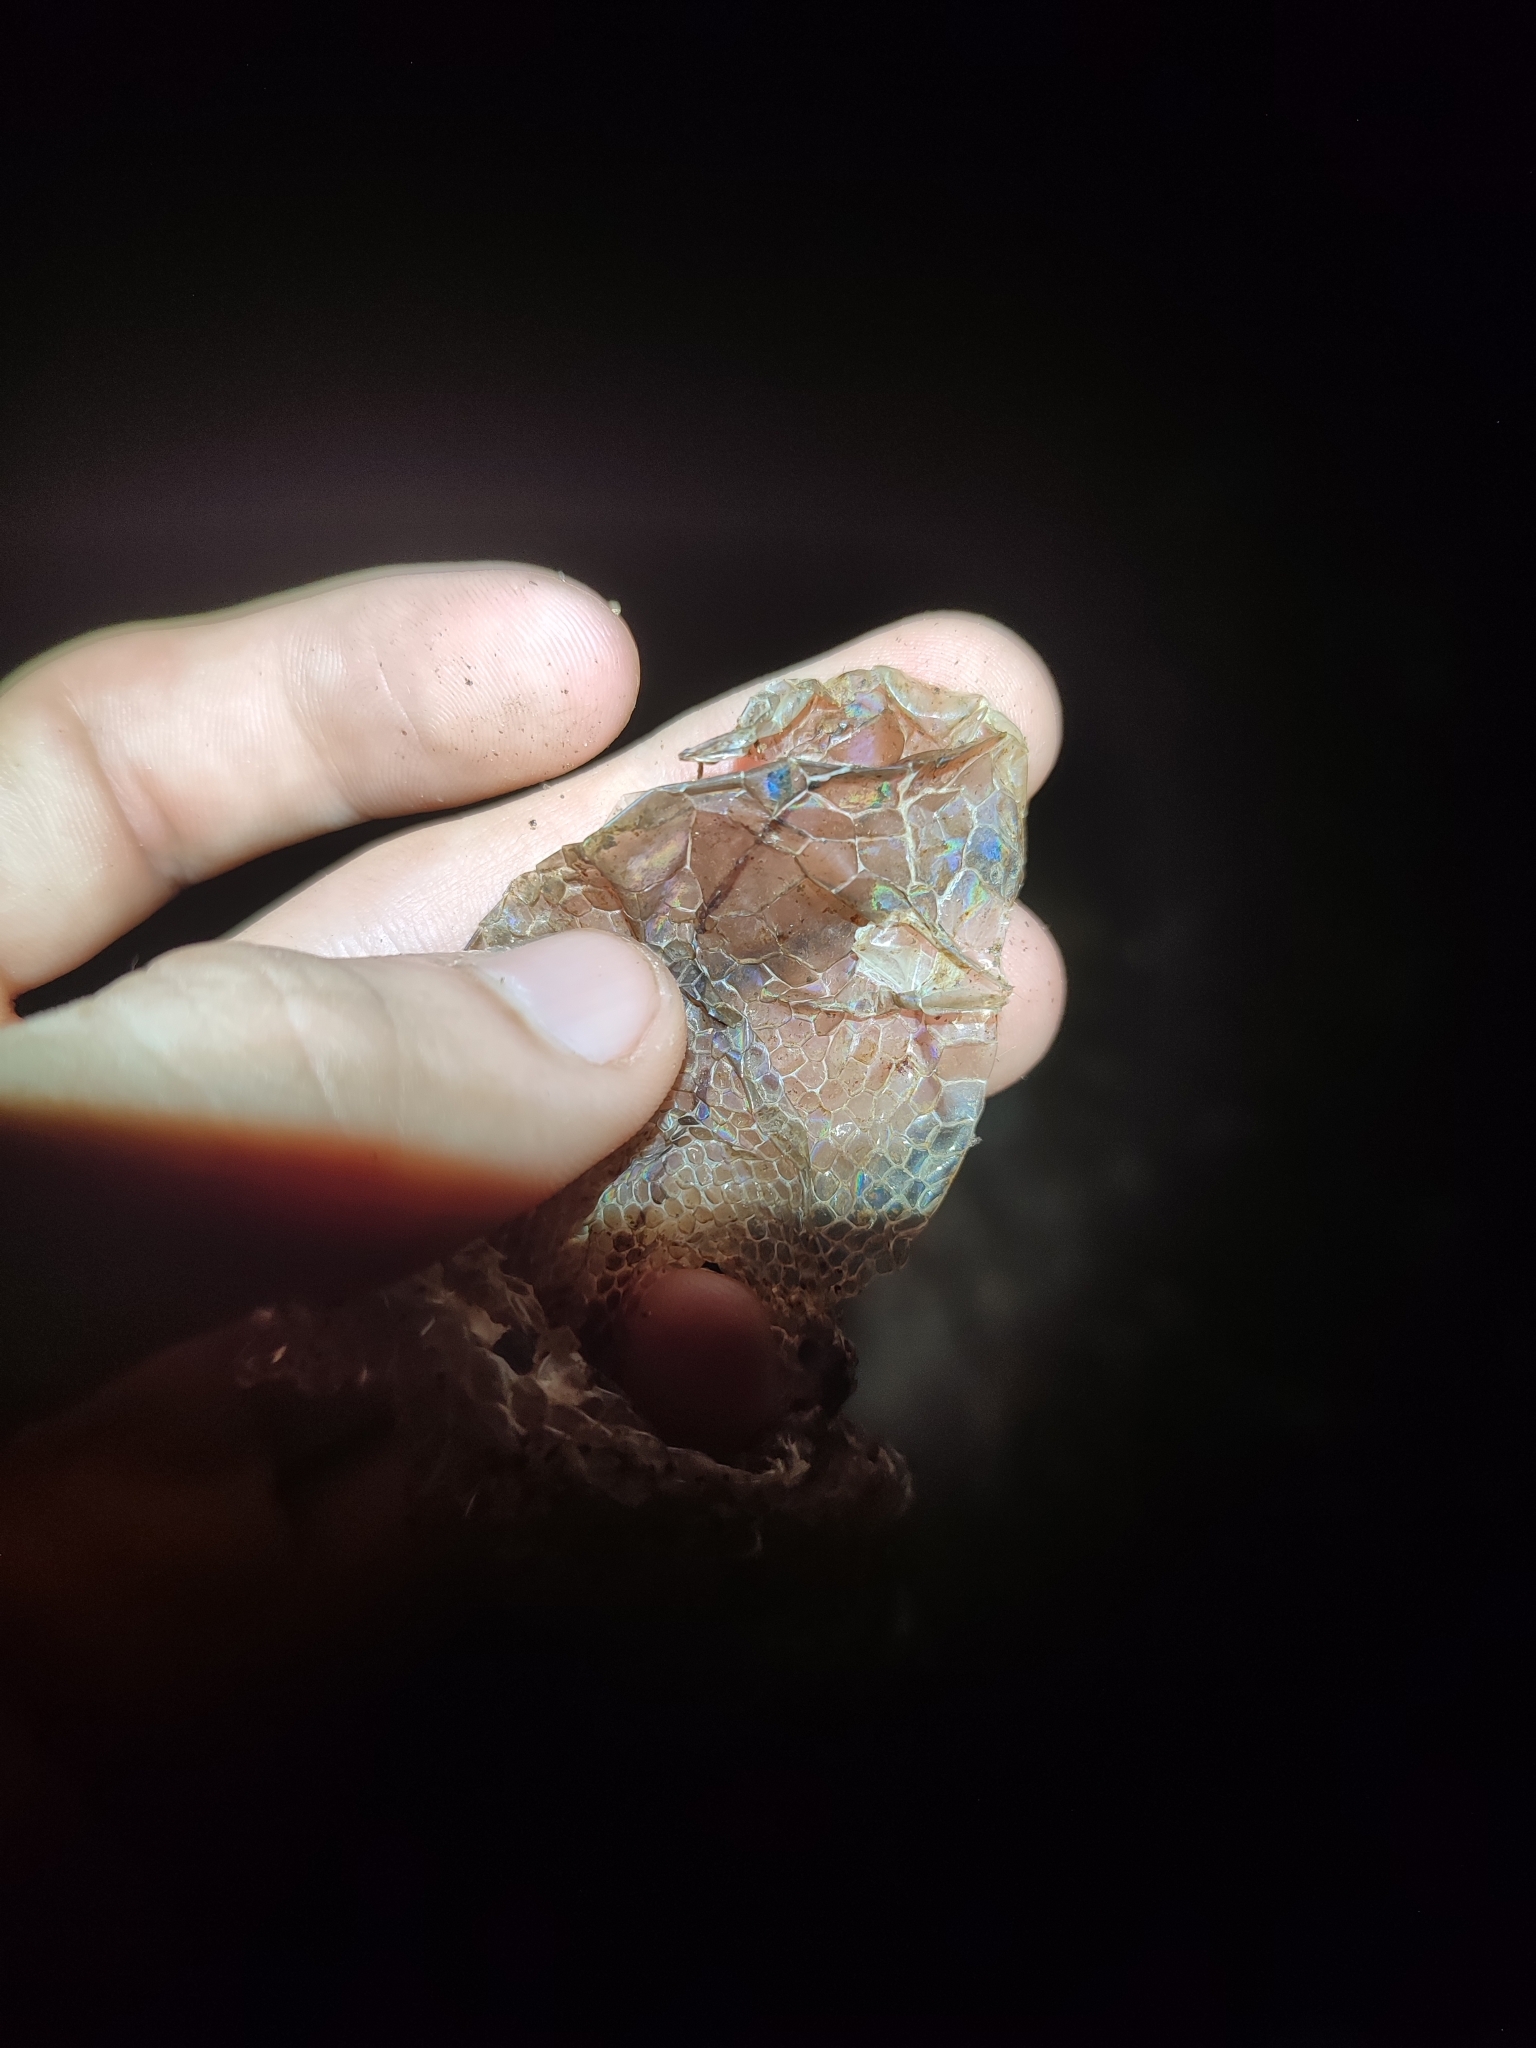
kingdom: Animalia
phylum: Chordata
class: Squamata
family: Pythonidae
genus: Malayopython
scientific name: Malayopython reticulatus
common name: Reticulated python
